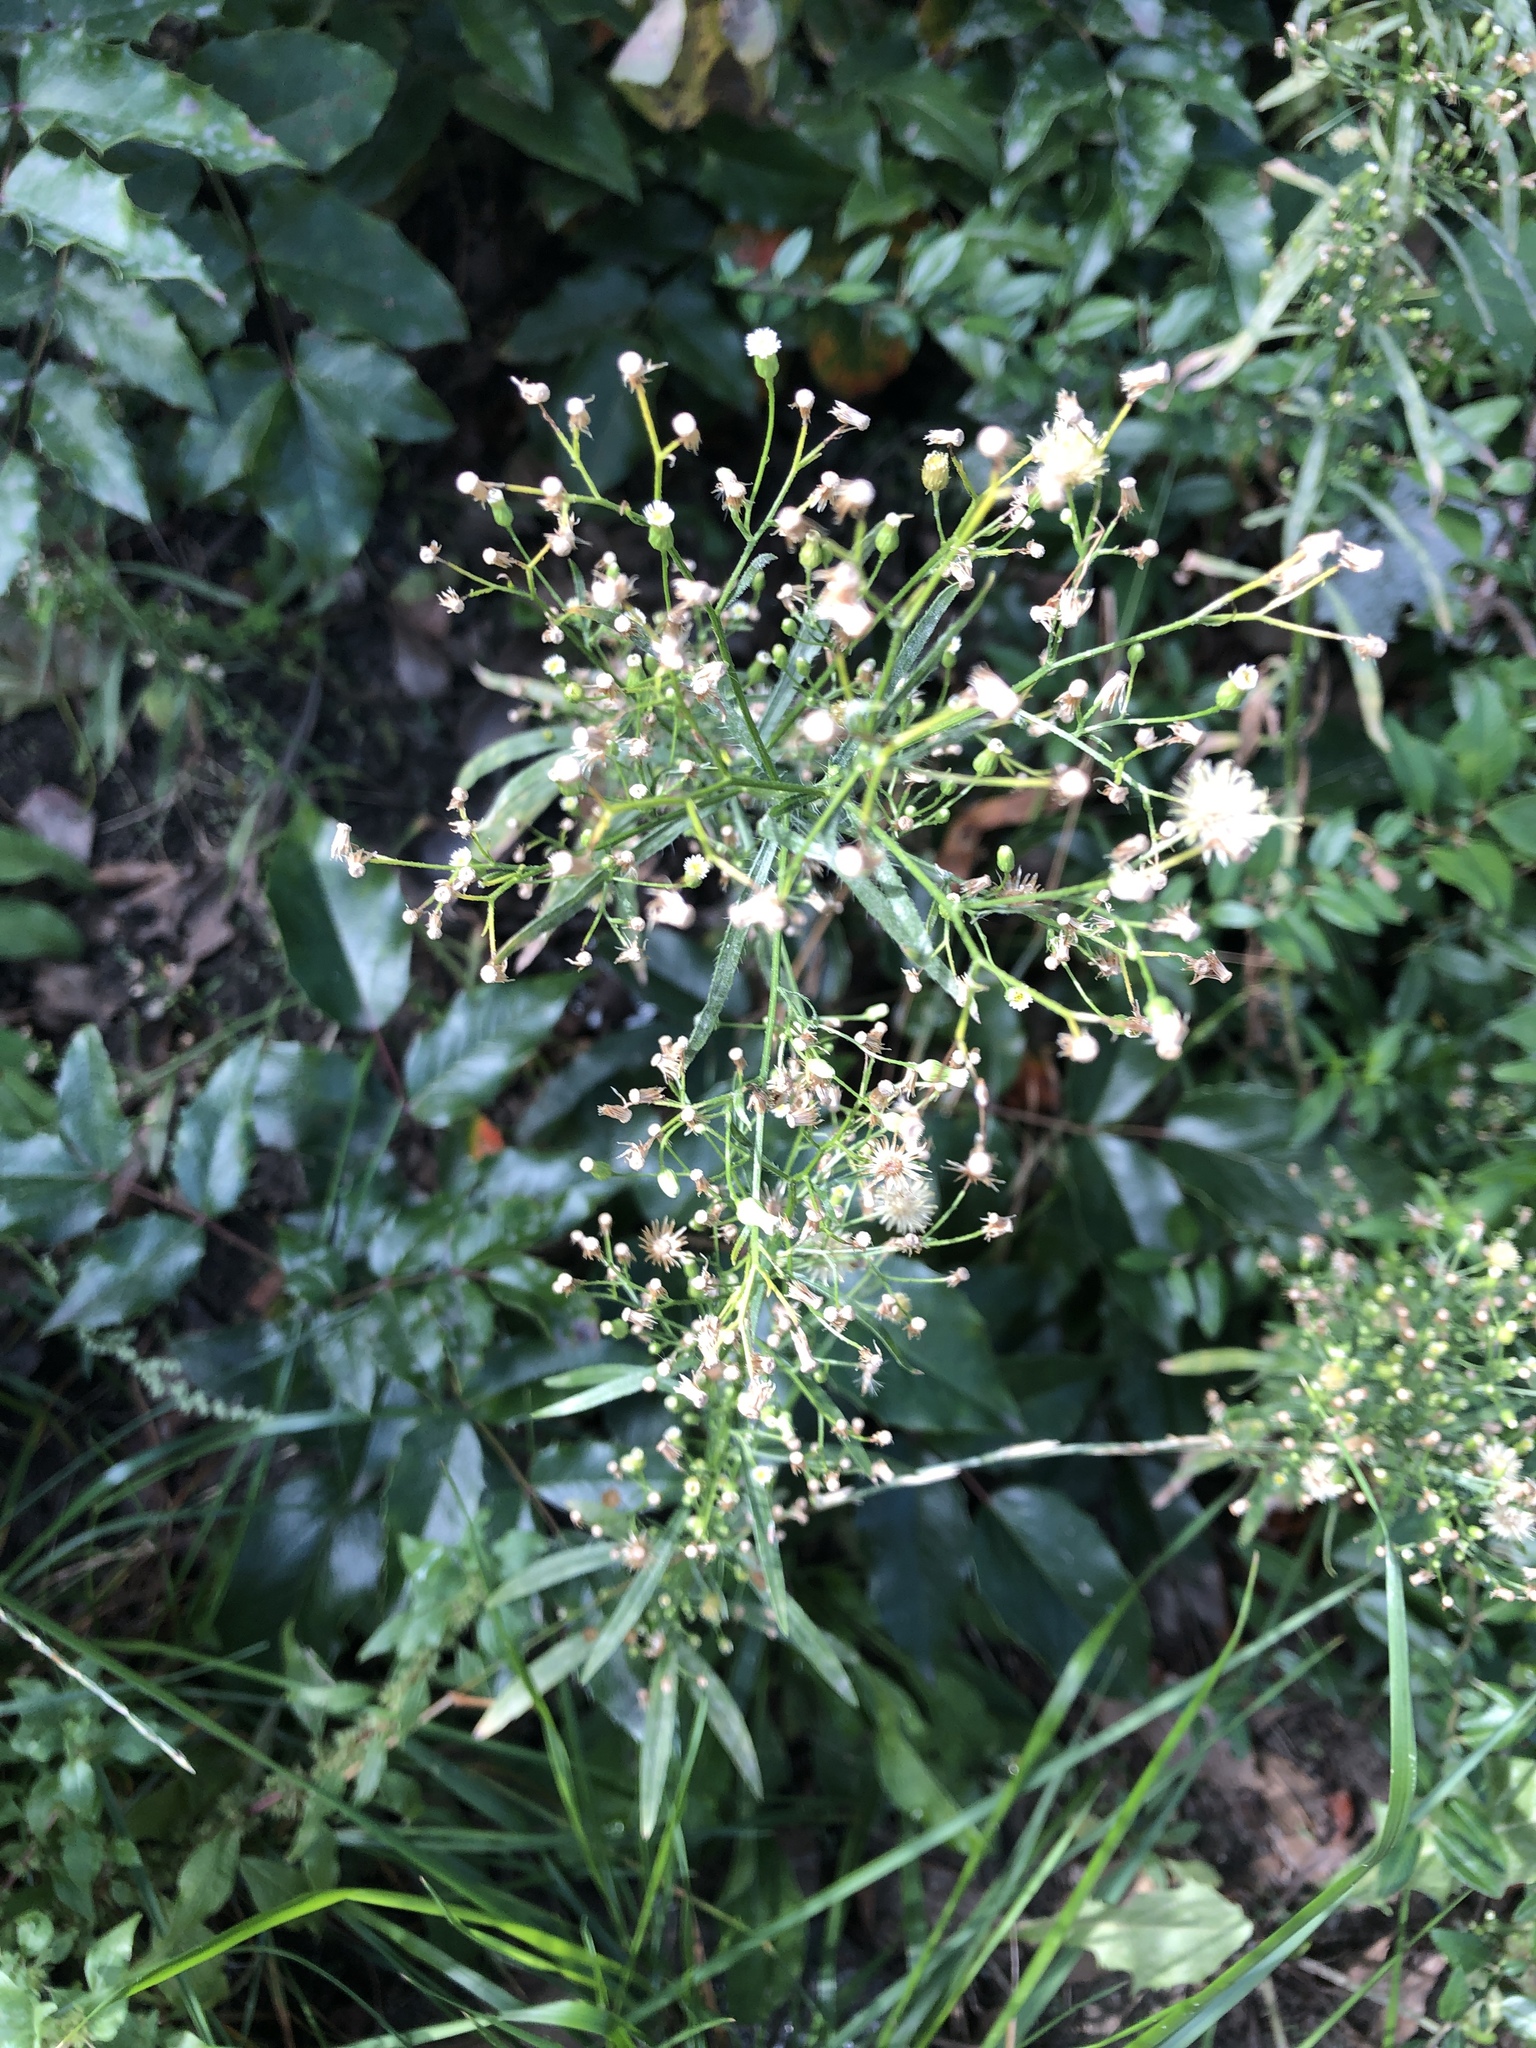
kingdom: Plantae
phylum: Tracheophyta
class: Magnoliopsida
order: Asterales
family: Asteraceae
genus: Erigeron
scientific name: Erigeron canadensis
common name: Canadian fleabane
